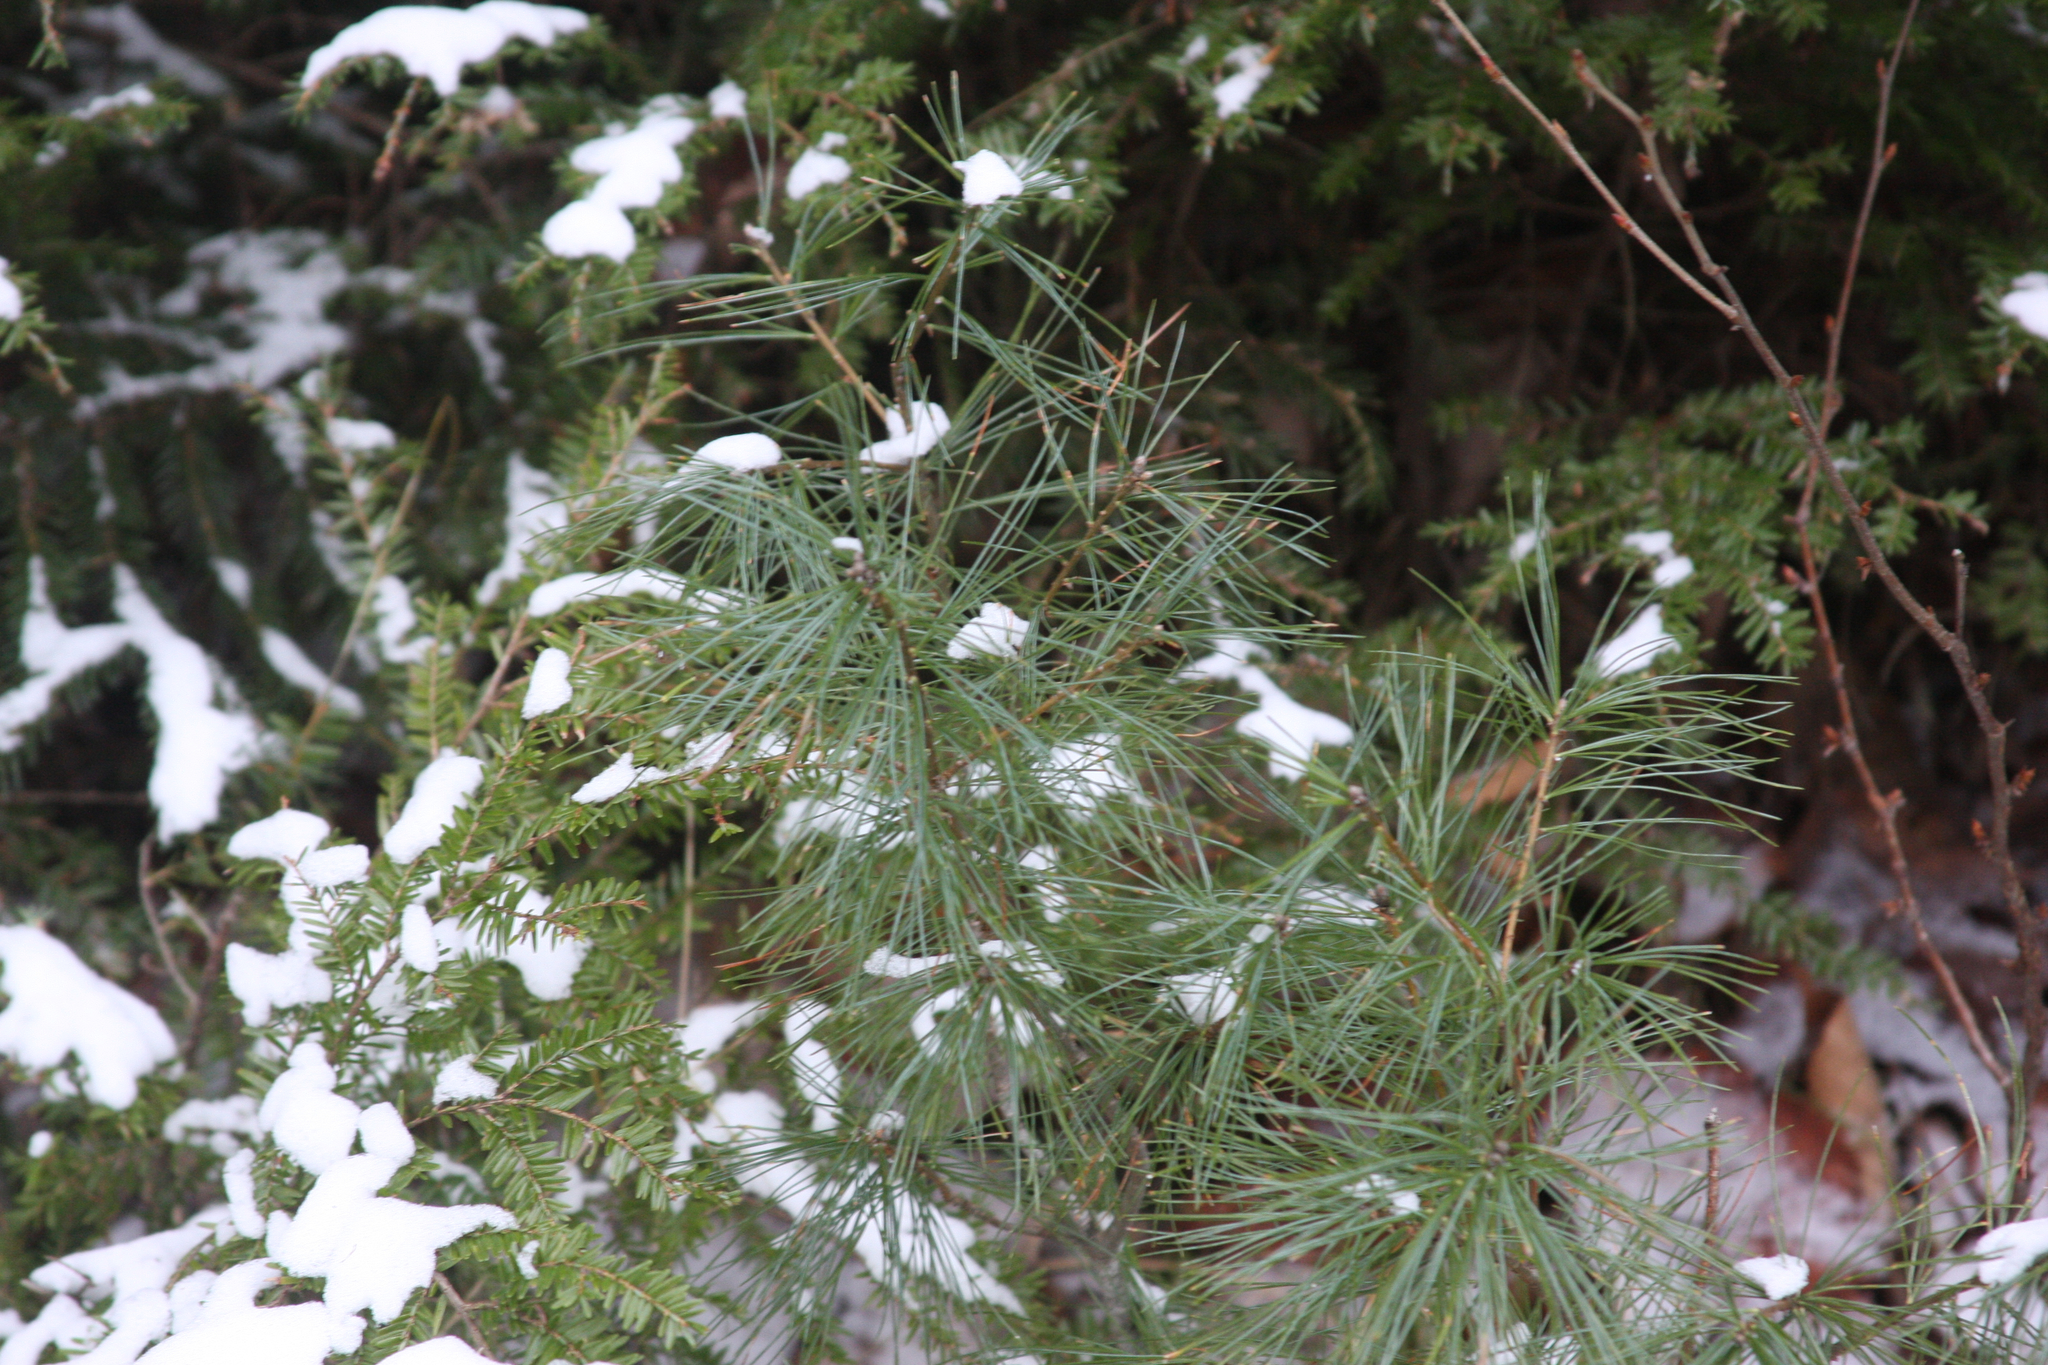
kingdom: Plantae
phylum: Tracheophyta
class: Pinopsida
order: Pinales
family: Pinaceae
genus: Pinus
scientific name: Pinus strobus
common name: Weymouth pine
